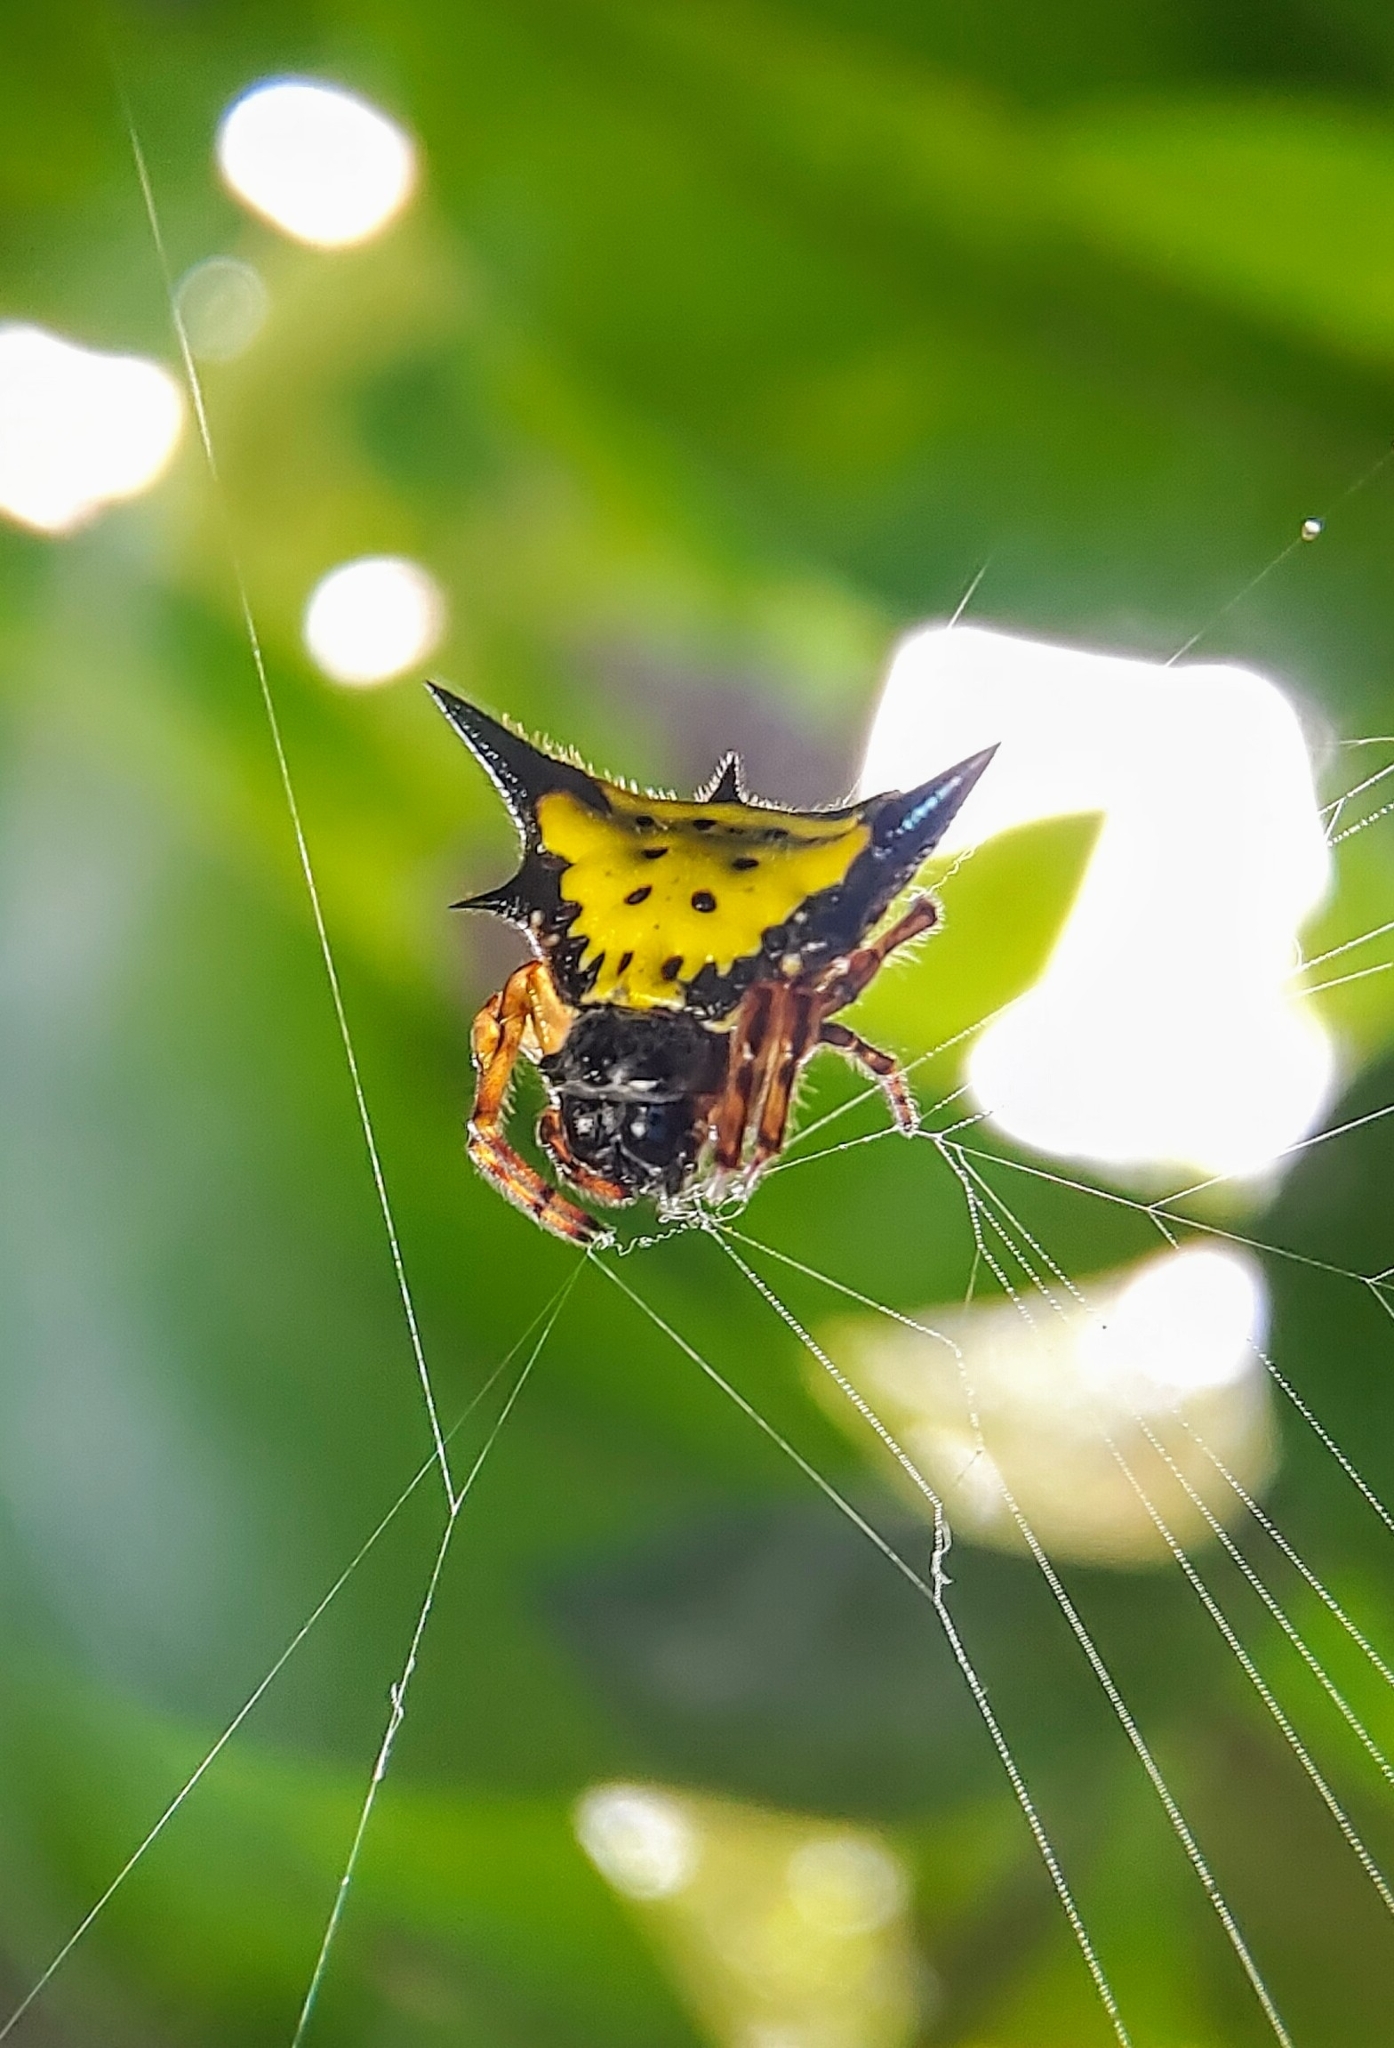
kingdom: Animalia
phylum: Arthropoda
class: Arachnida
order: Araneae
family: Araneidae
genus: Macracantha
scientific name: Macracantha hasselti
